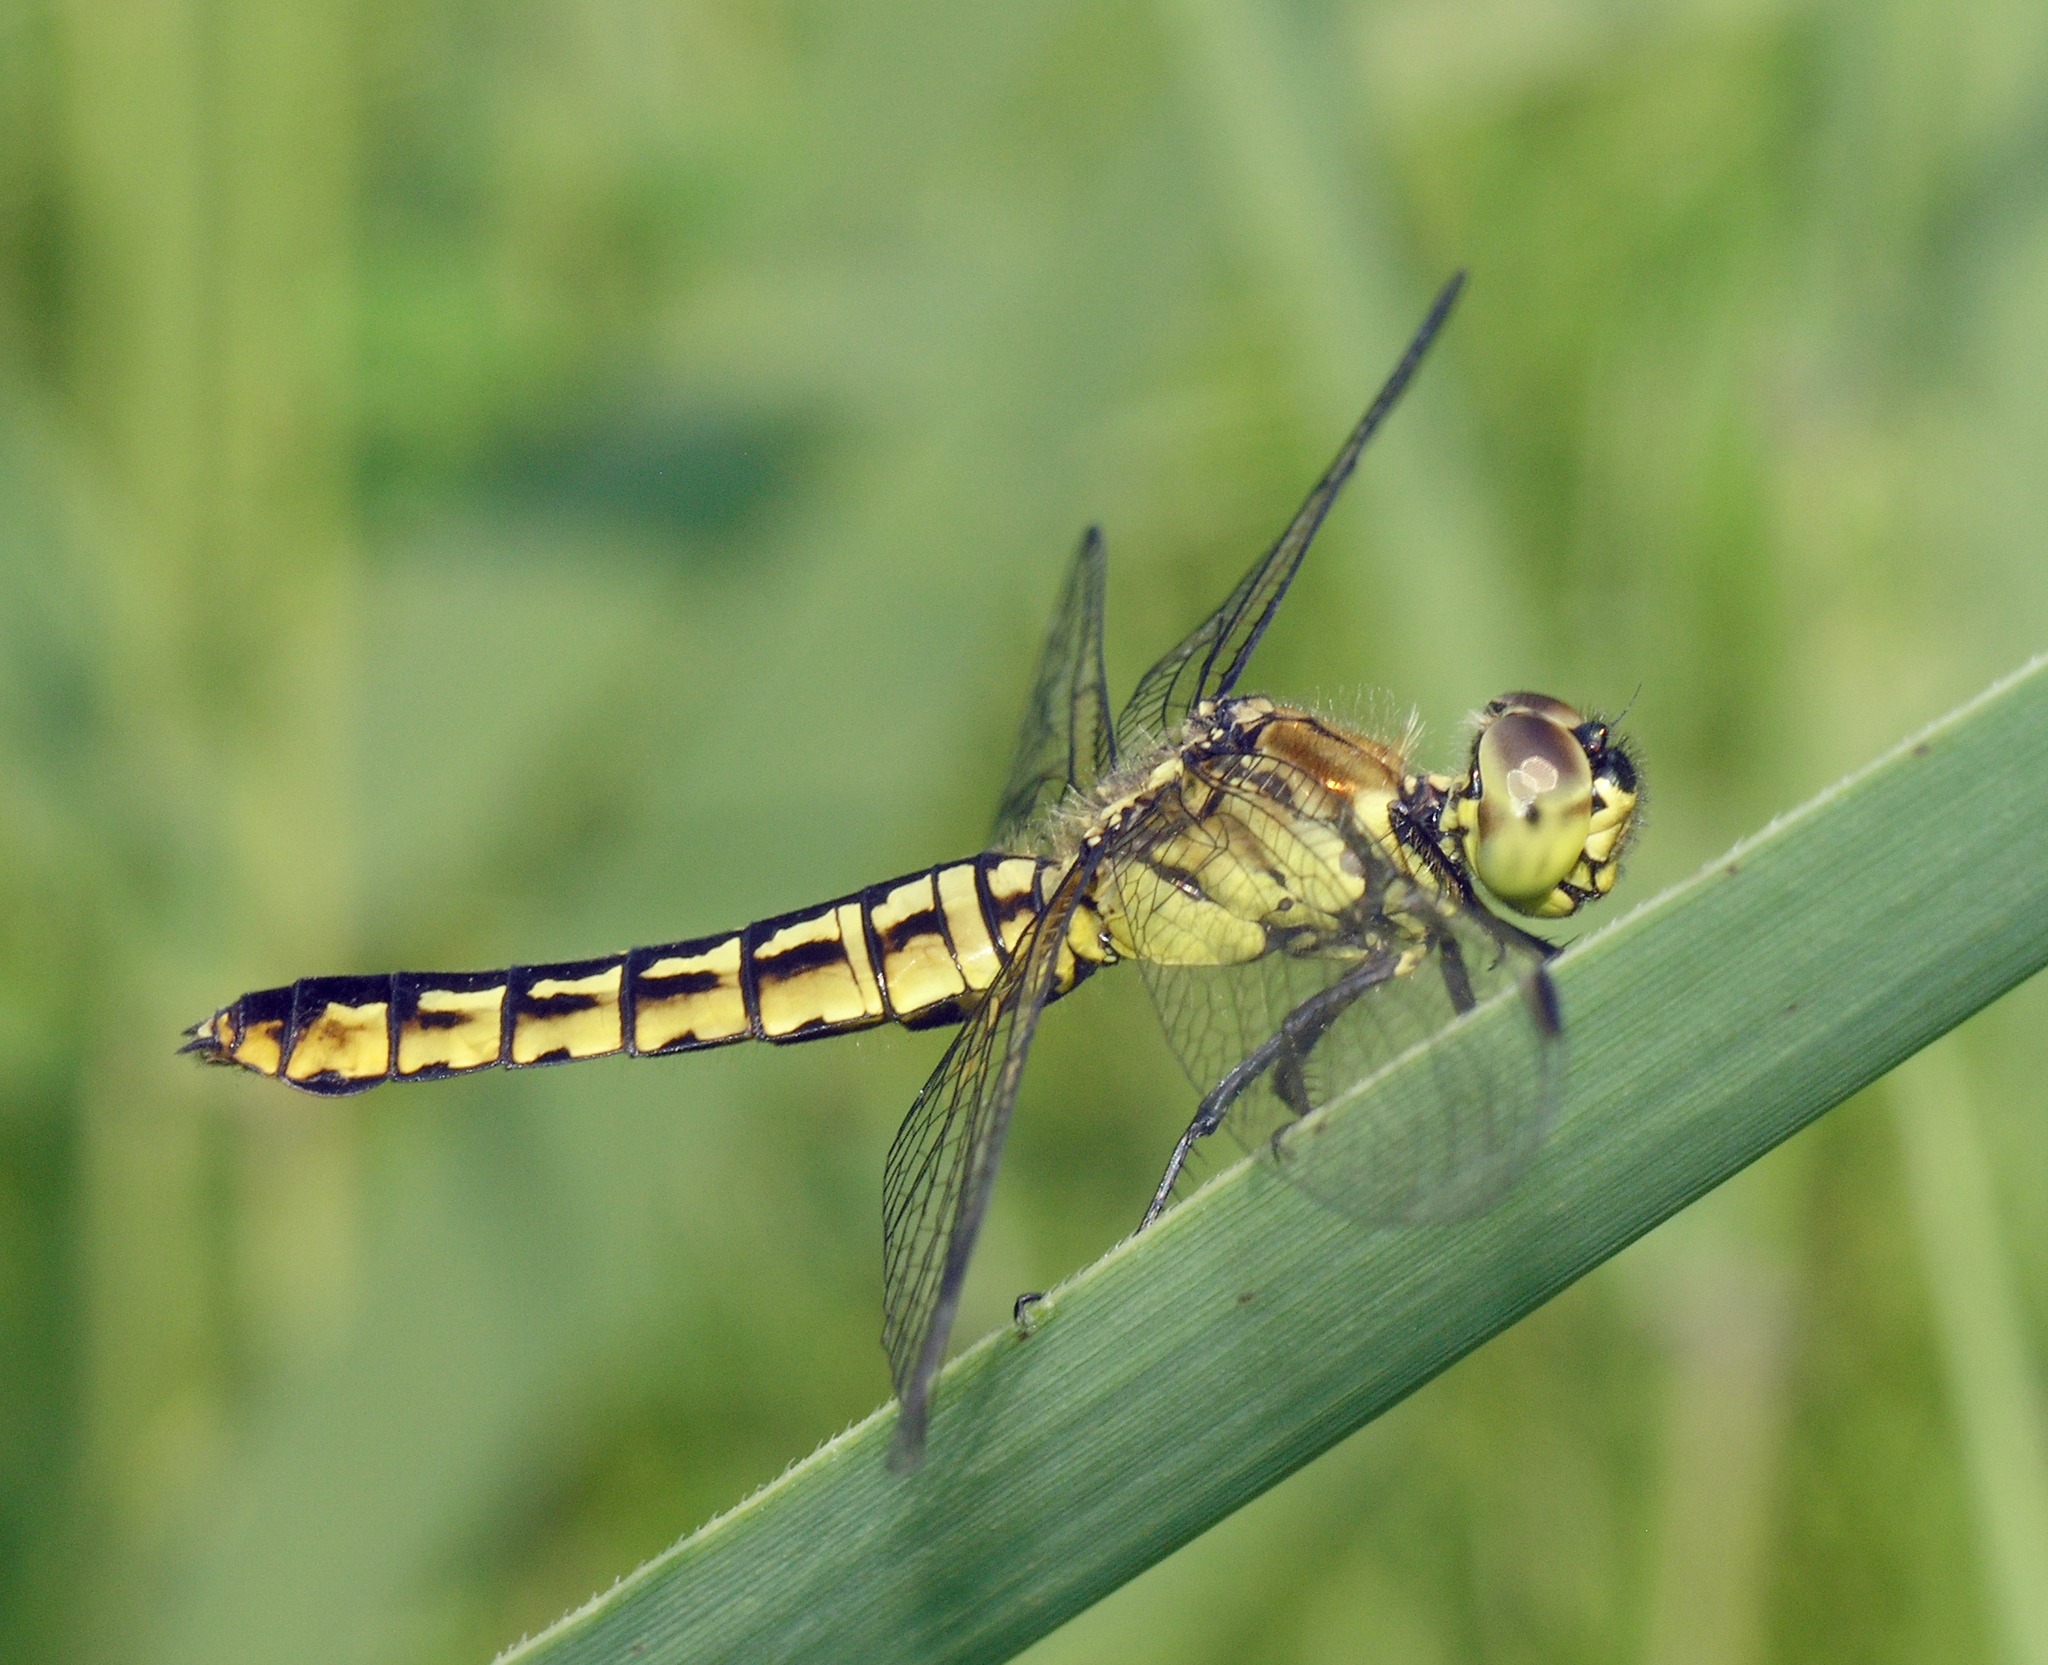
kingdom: Animalia
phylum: Arthropoda
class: Insecta
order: Odonata
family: Libellulidae
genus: Lyriothemis
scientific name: Lyriothemis pachygastra
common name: Wide-bellied skimmer
